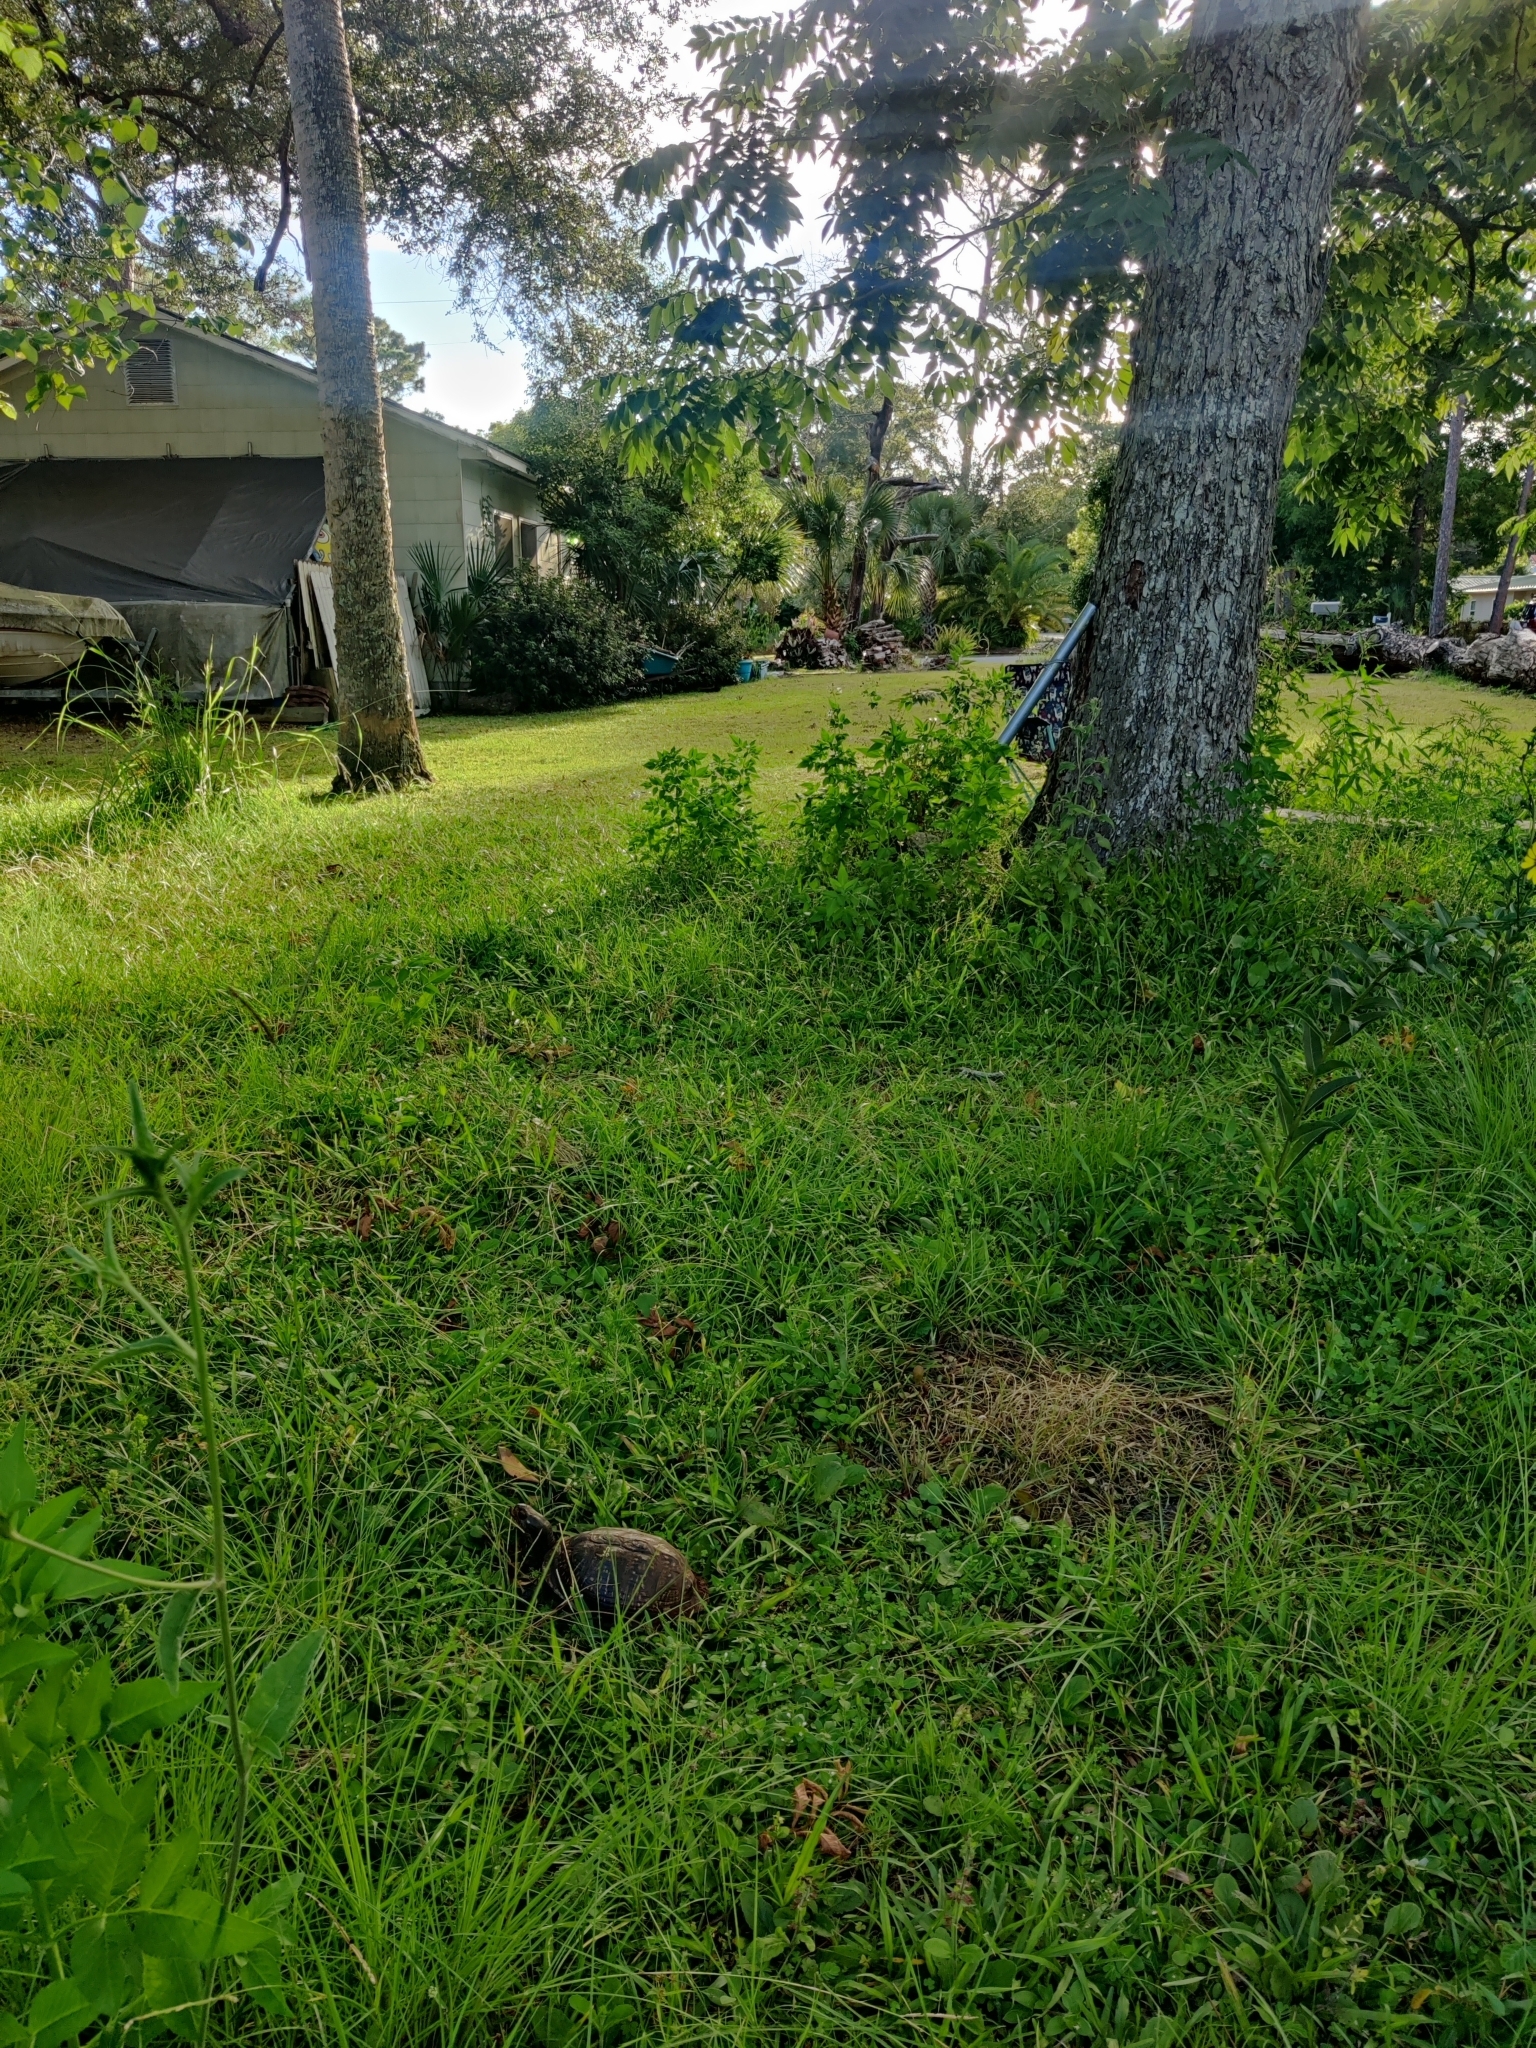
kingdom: Animalia
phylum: Chordata
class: Testudines
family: Emydidae
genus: Terrapene
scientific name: Terrapene carolina
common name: Common box turtle
